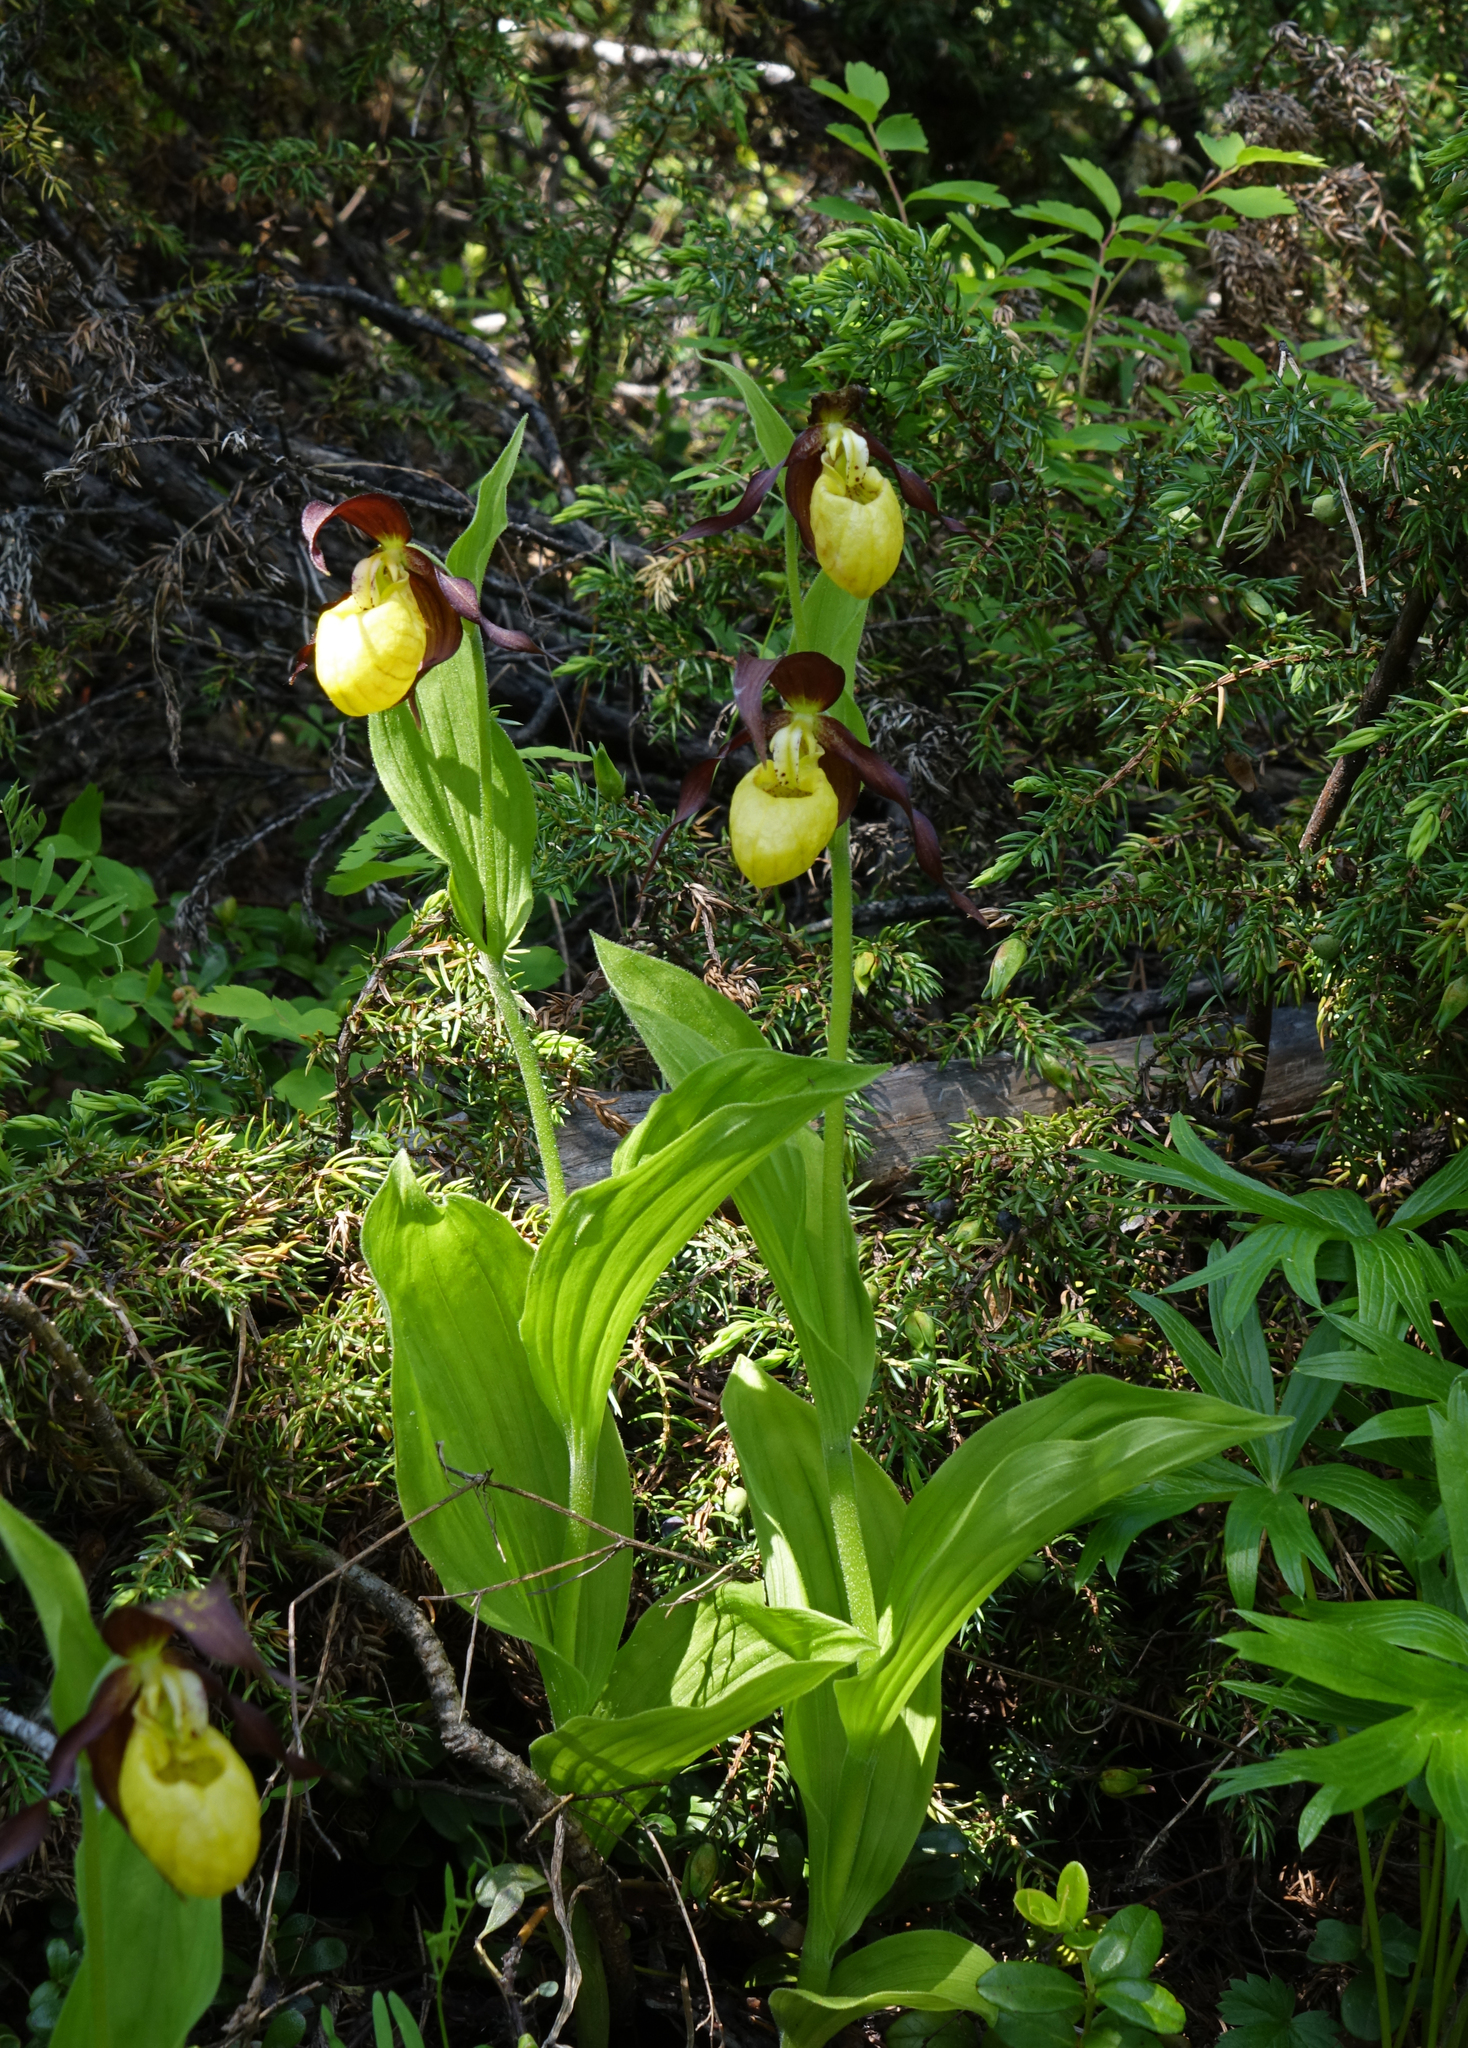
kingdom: Plantae
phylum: Tracheophyta
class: Liliopsida
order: Asparagales
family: Orchidaceae
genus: Cypripedium
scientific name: Cypripedium calceolus
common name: Lady's-slipper
